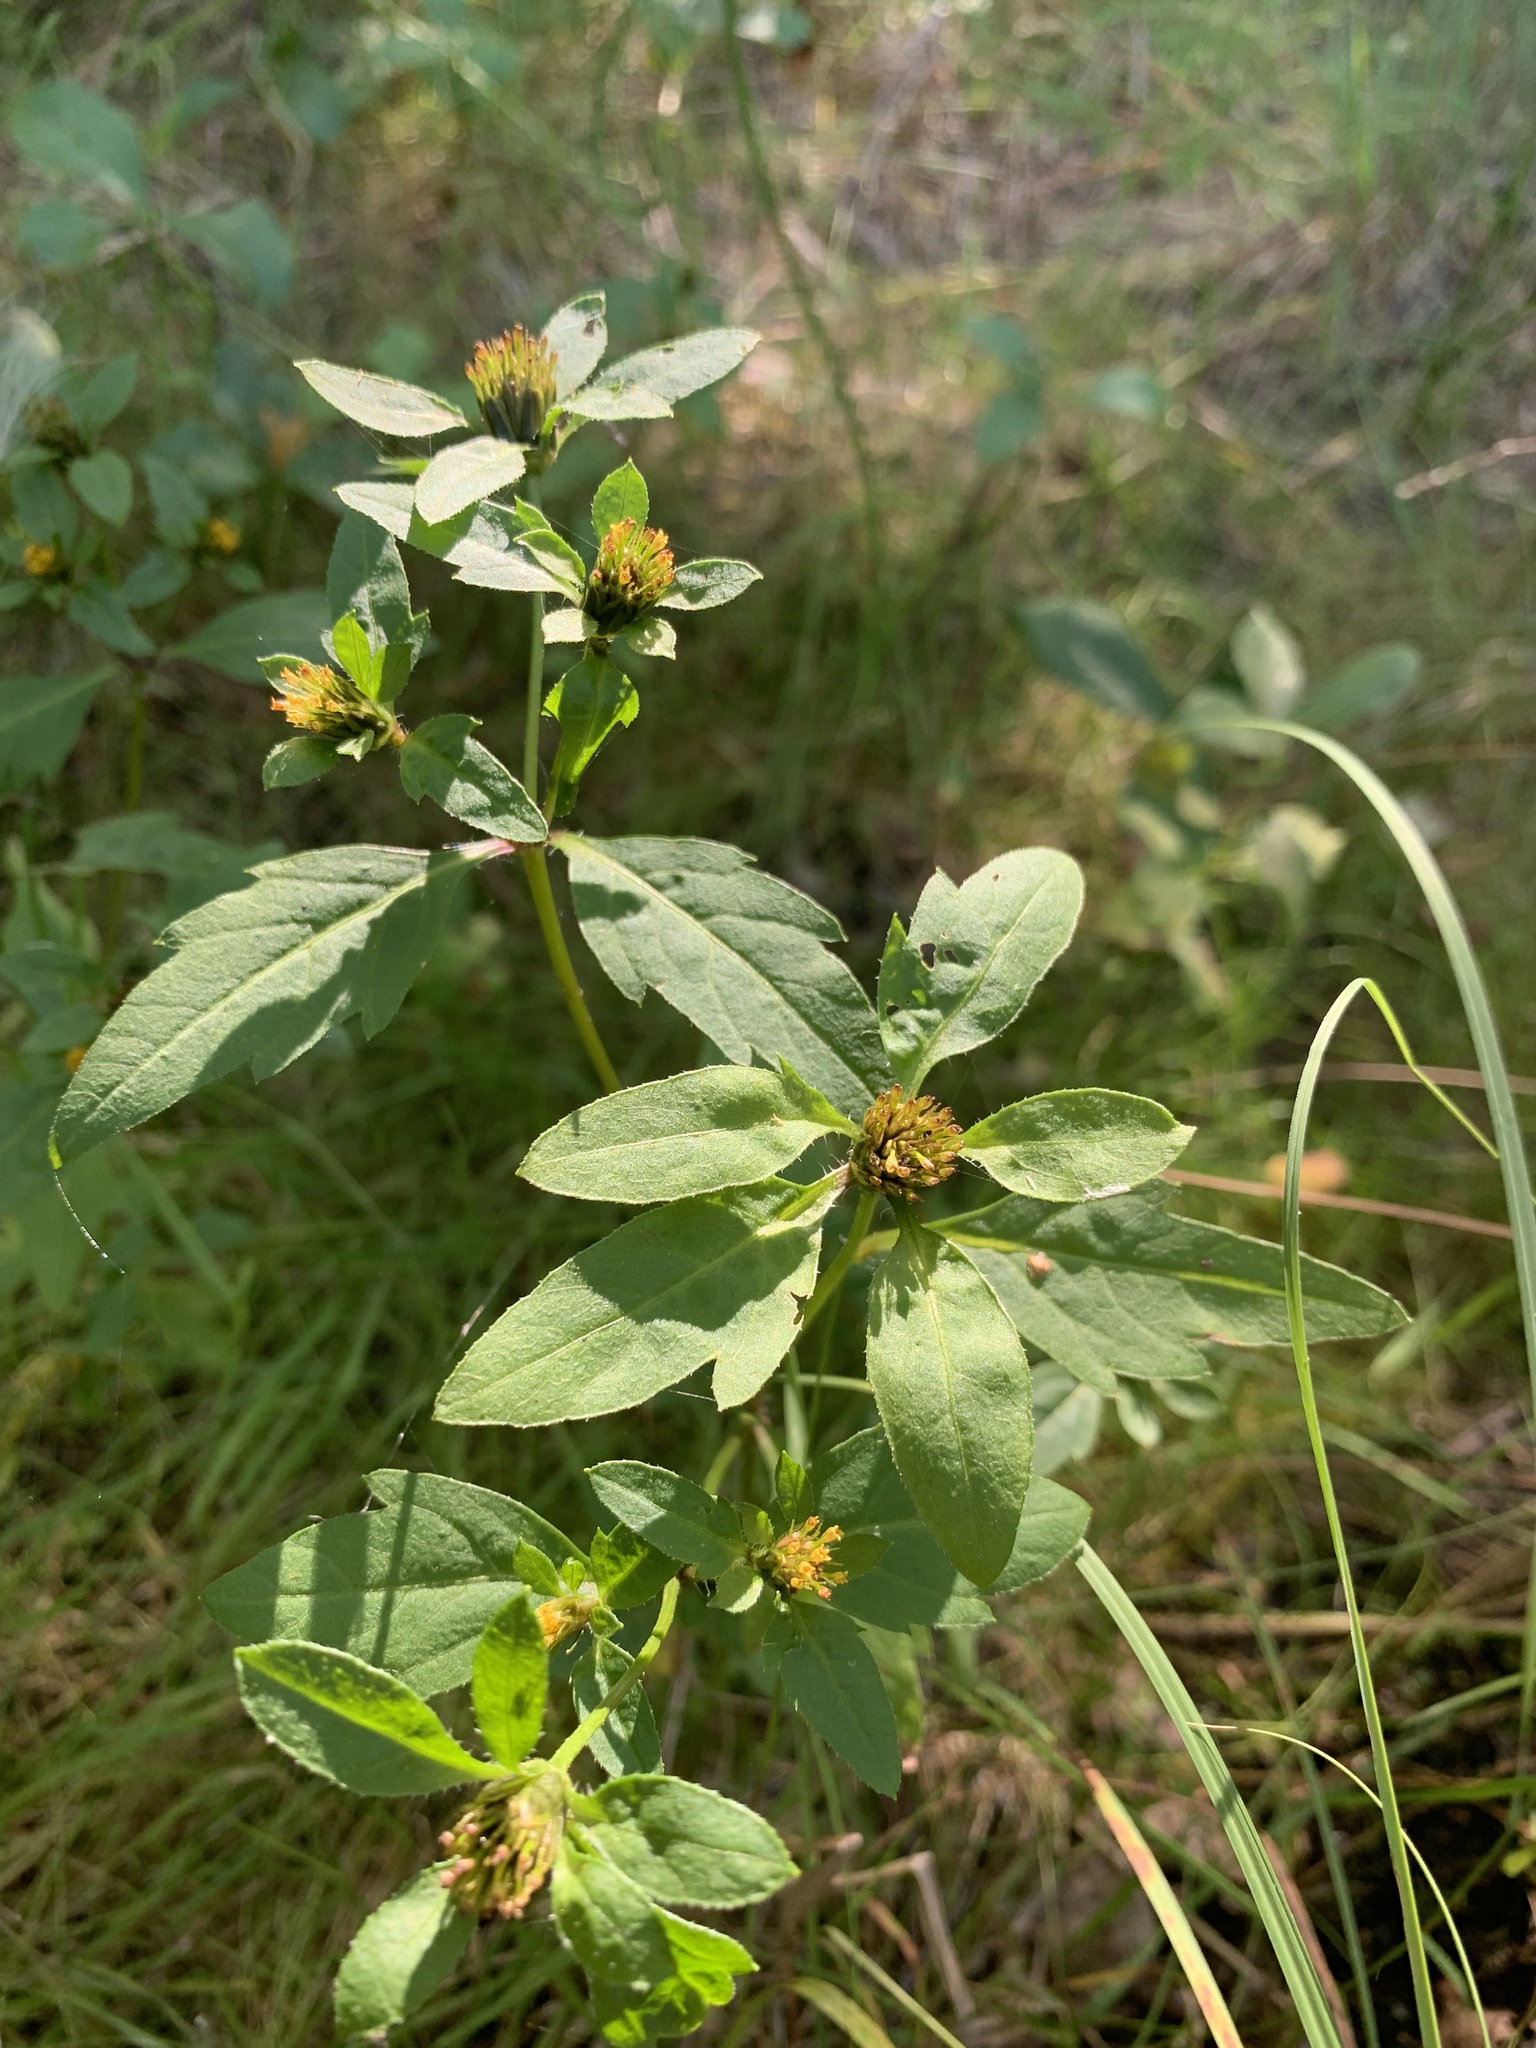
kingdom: Plantae
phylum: Tracheophyta
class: Magnoliopsida
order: Asterales
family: Asteraceae
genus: Bidens
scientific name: Bidens tripartita
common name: Trifid bur-marigold
